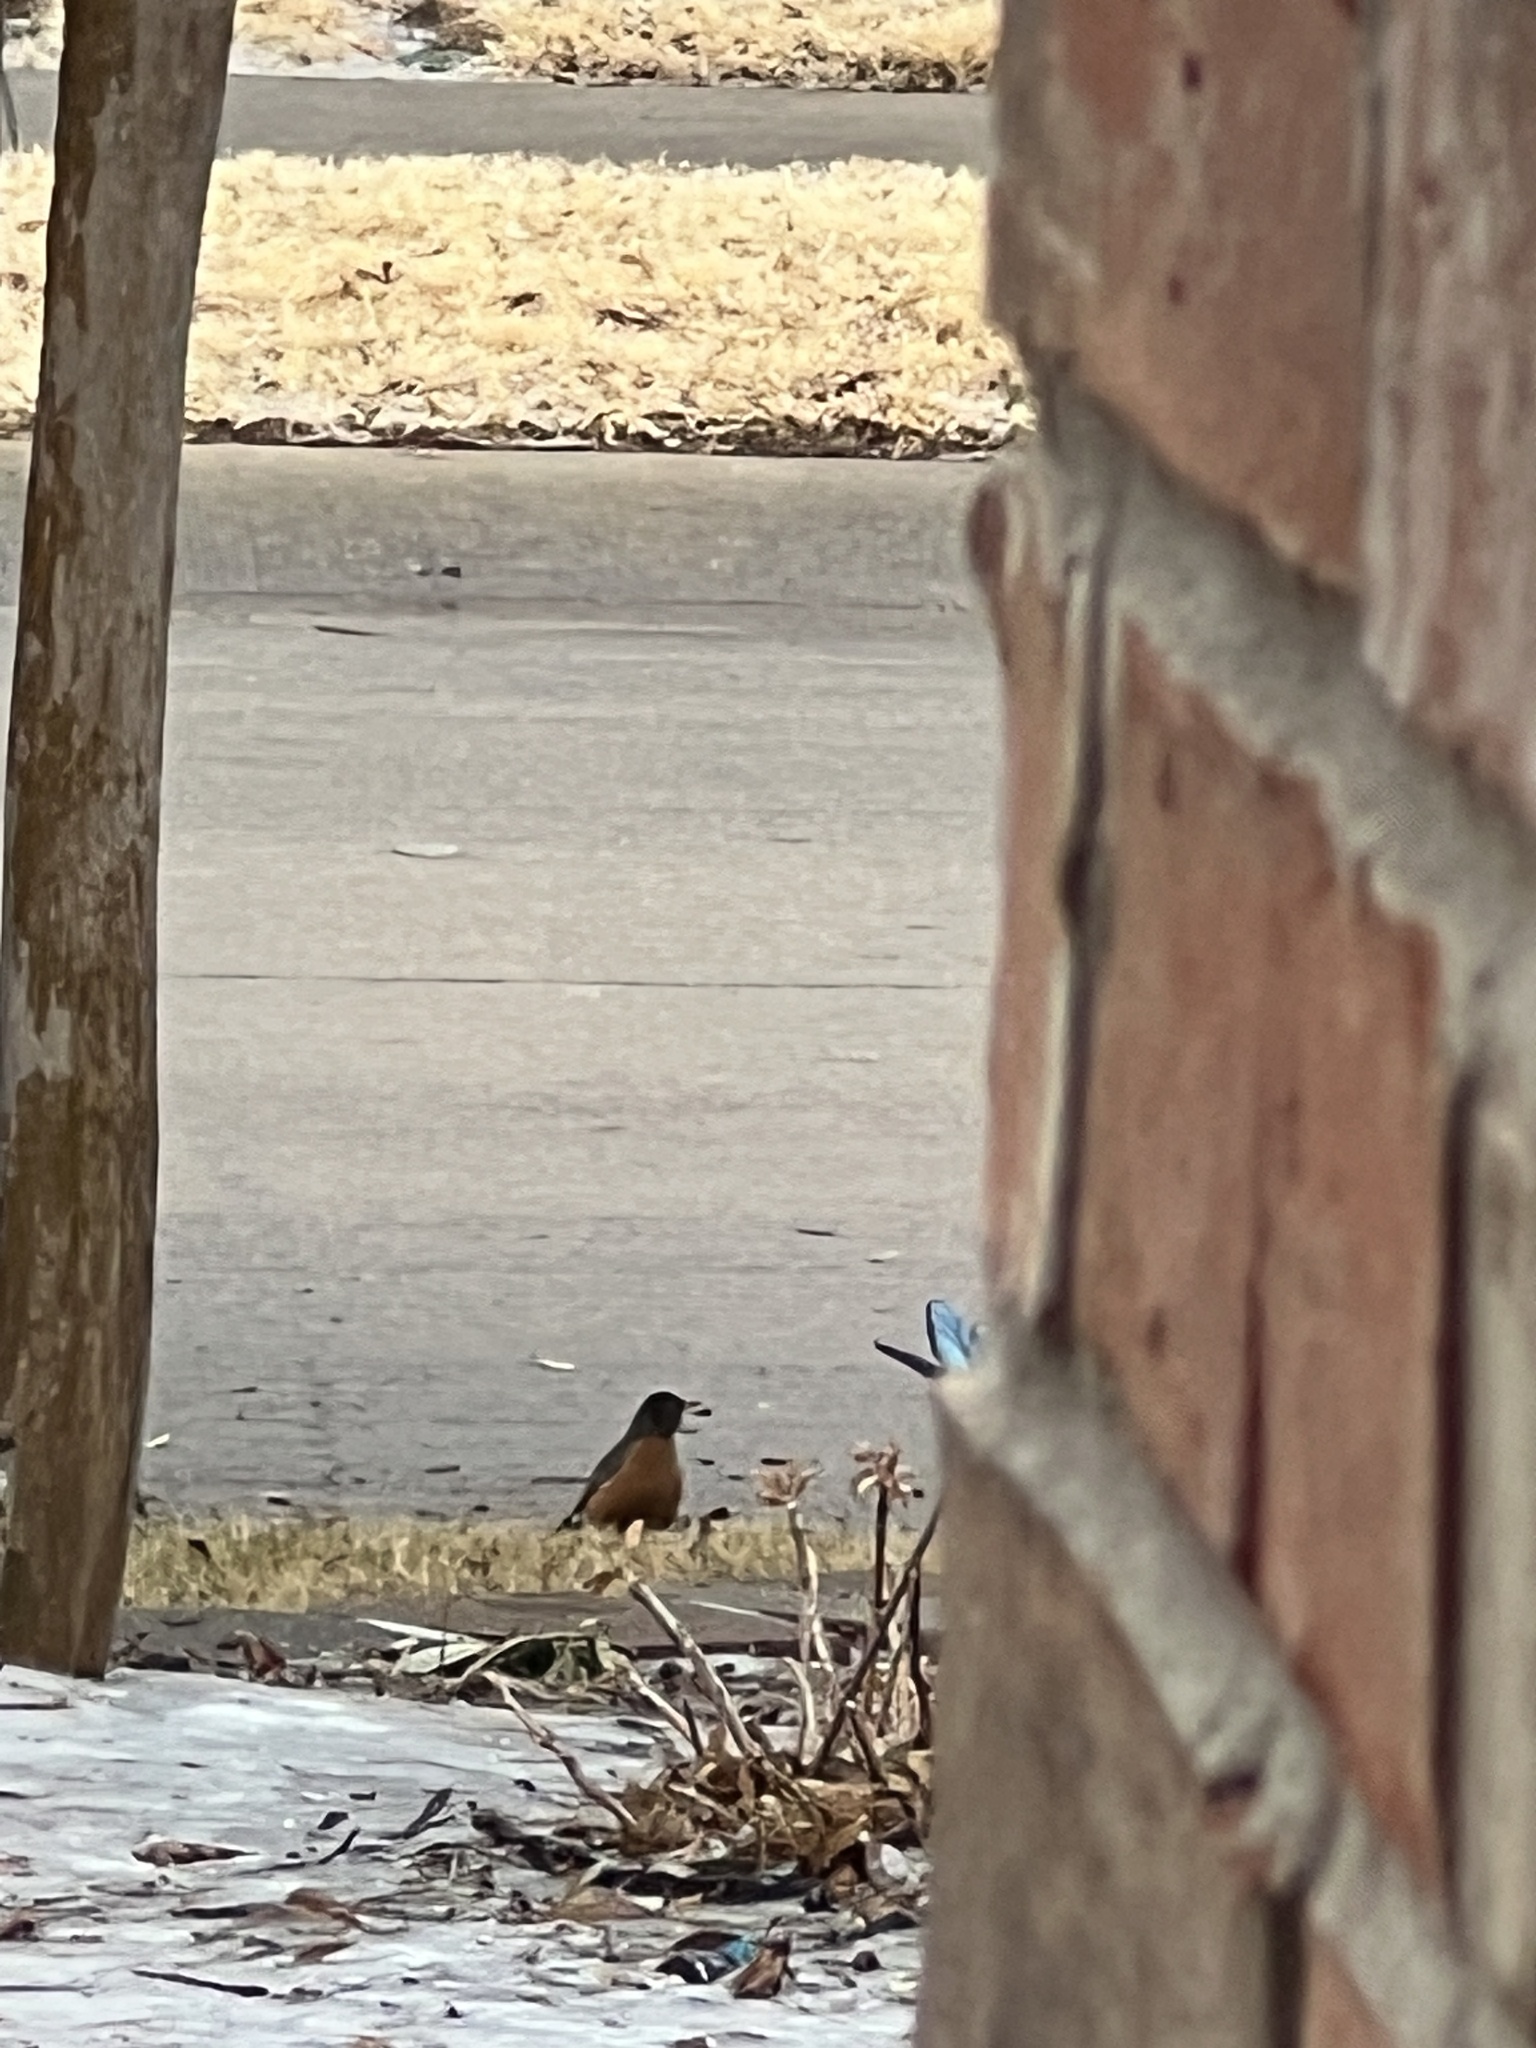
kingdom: Animalia
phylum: Chordata
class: Aves
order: Passeriformes
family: Turdidae
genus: Turdus
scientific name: Turdus migratorius
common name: American robin
